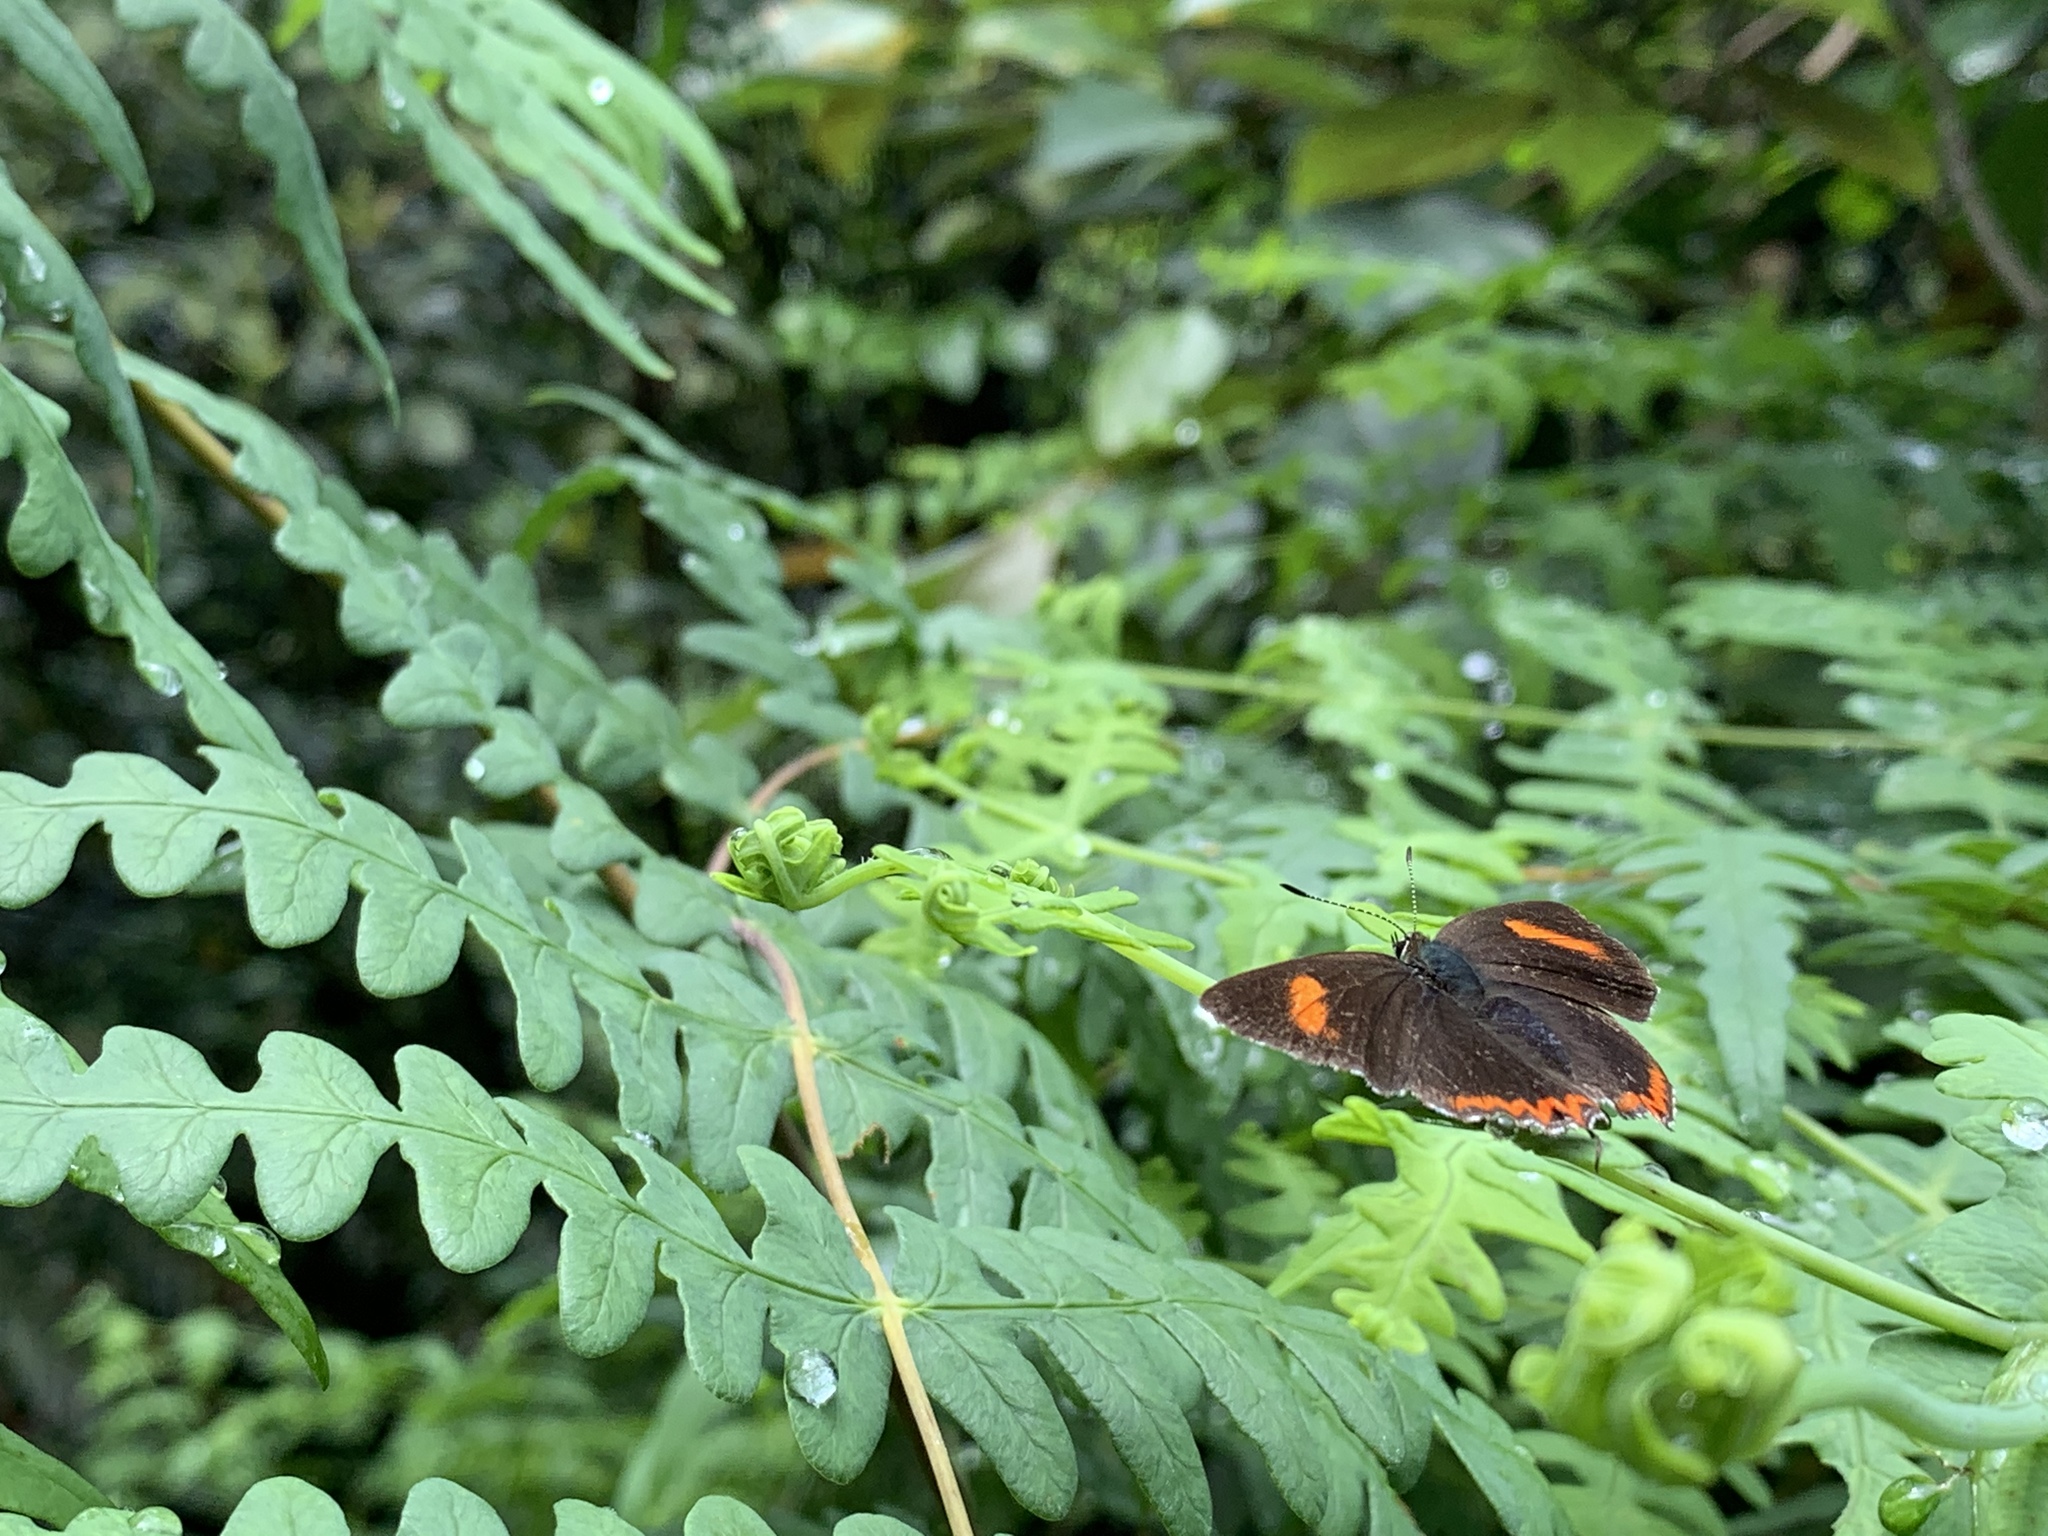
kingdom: Animalia
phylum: Arthropoda
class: Insecta
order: Lepidoptera
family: Lycaenidae
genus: Heliophorus
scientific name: Heliophorus ila
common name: Restricted purple sapphire
